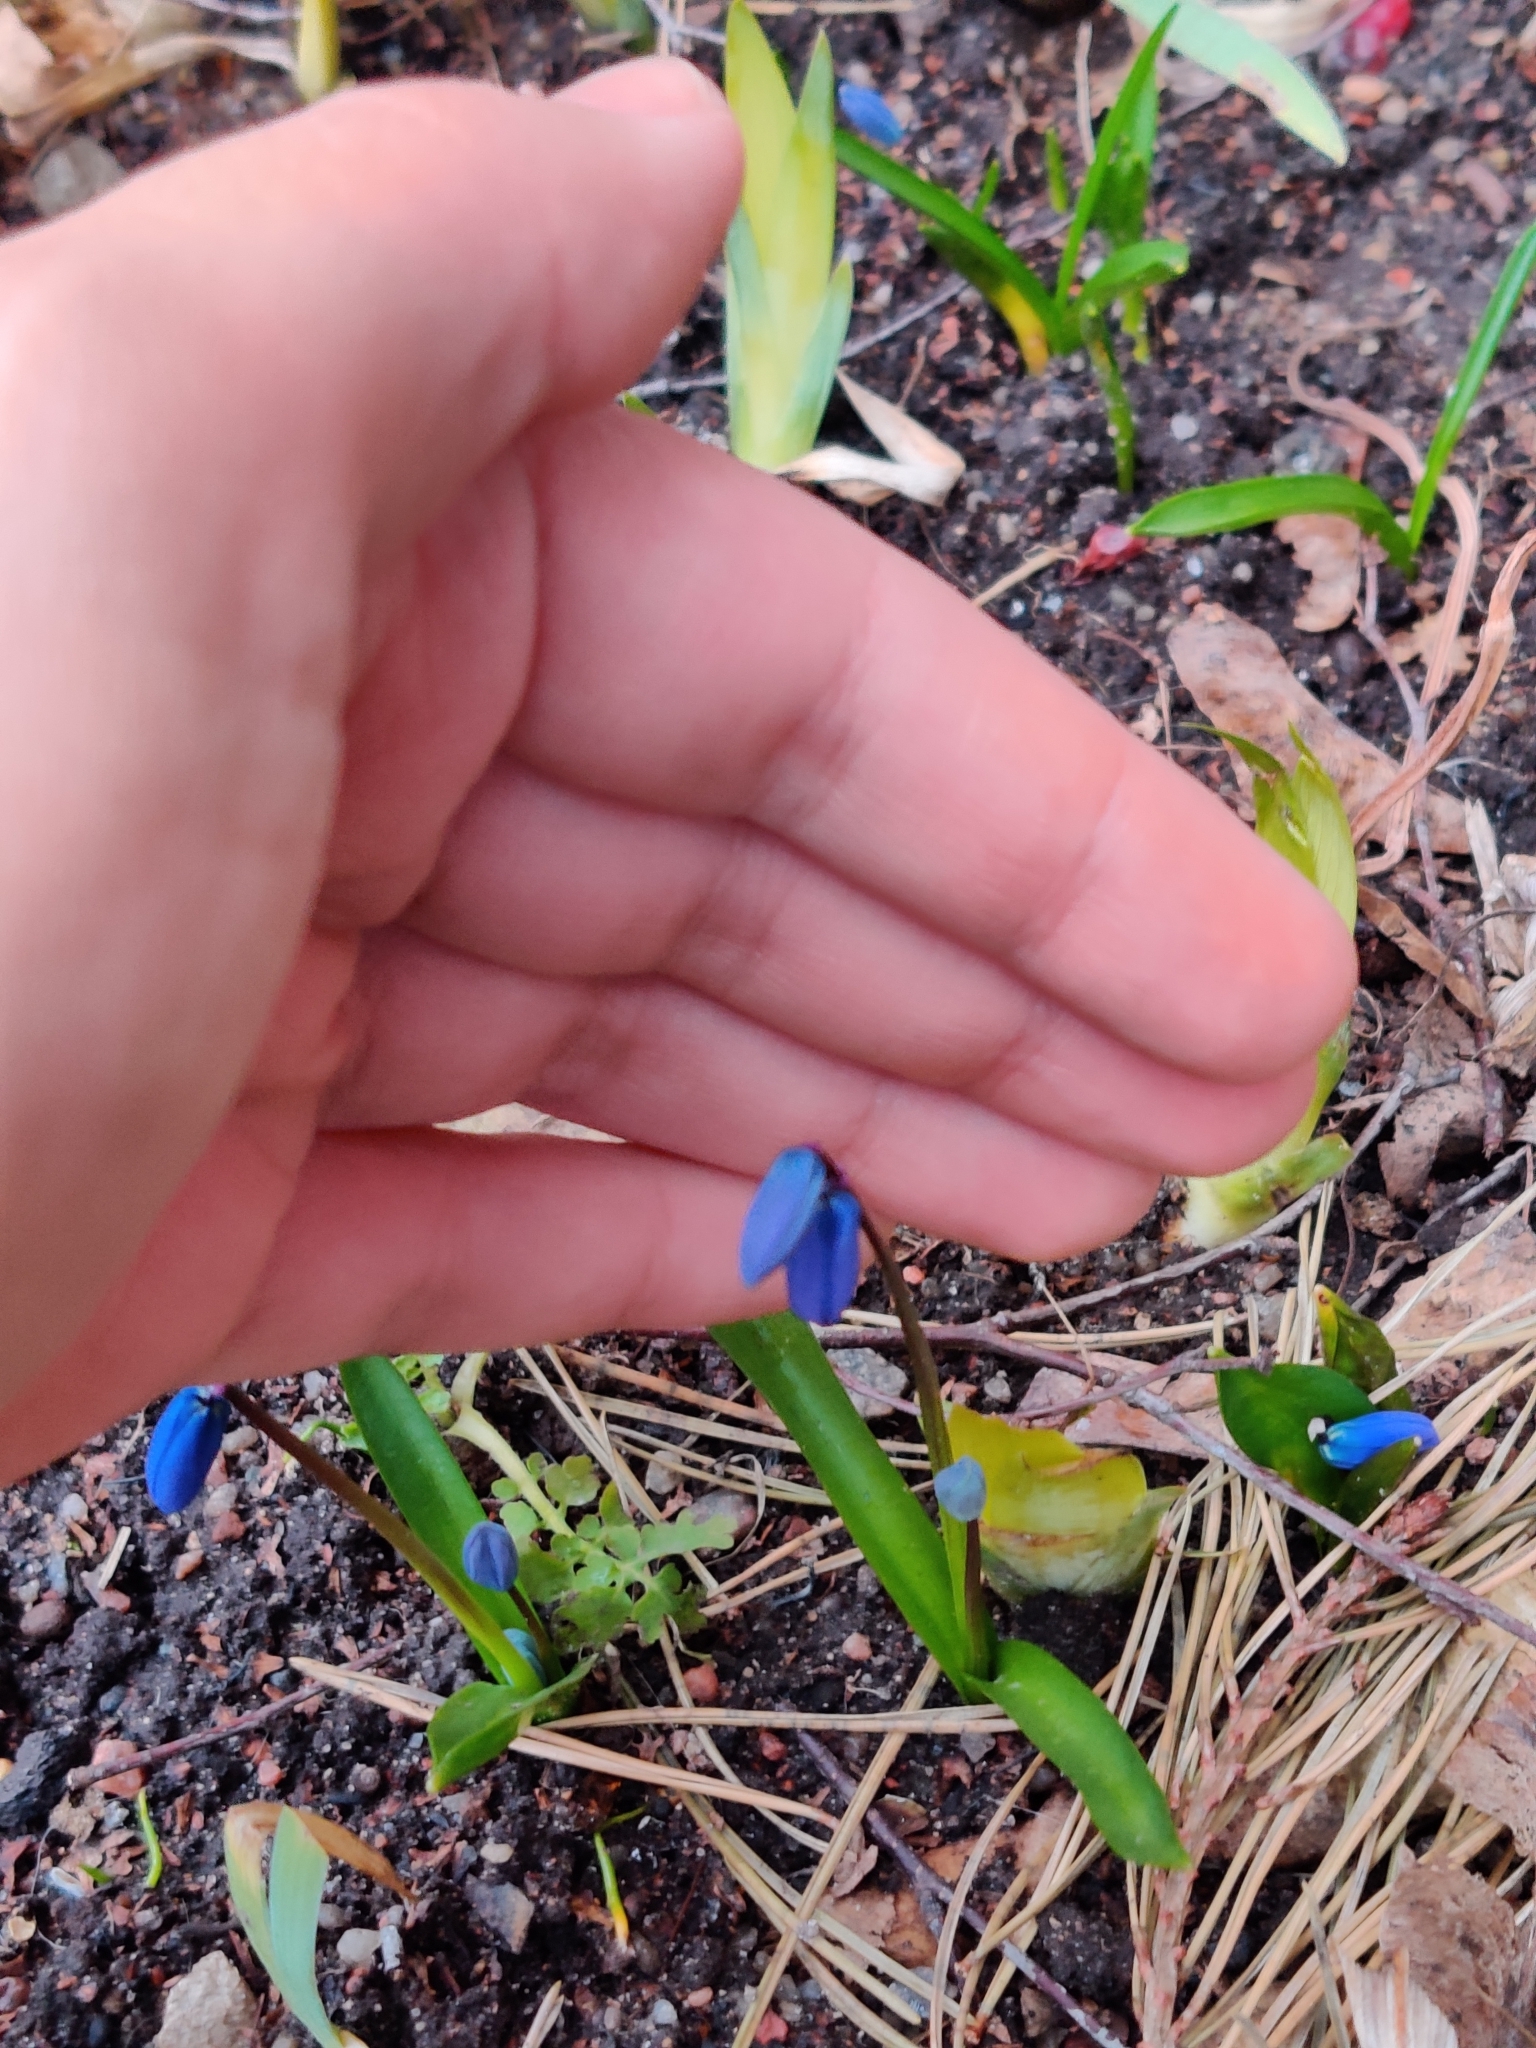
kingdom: Plantae
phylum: Tracheophyta
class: Liliopsida
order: Asparagales
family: Asparagaceae
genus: Scilla
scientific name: Scilla siberica
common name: Siberian squill
